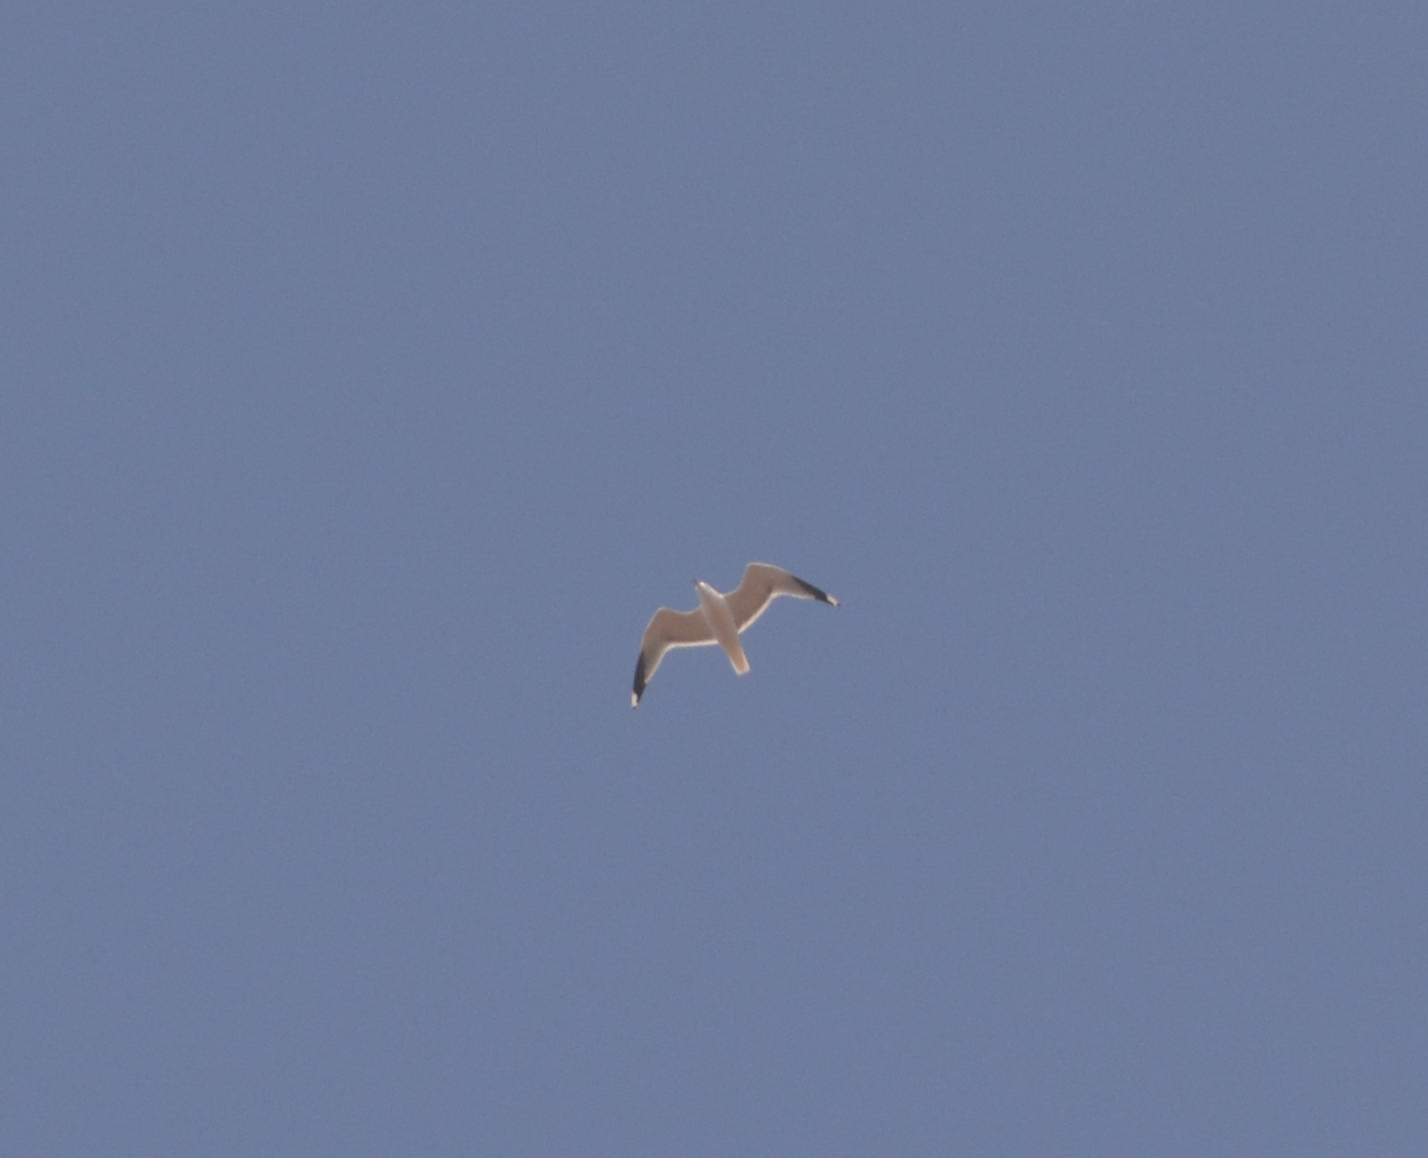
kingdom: Animalia
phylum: Chordata
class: Aves
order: Charadriiformes
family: Laridae
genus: Larus
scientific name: Larus canus
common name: Mew gull
